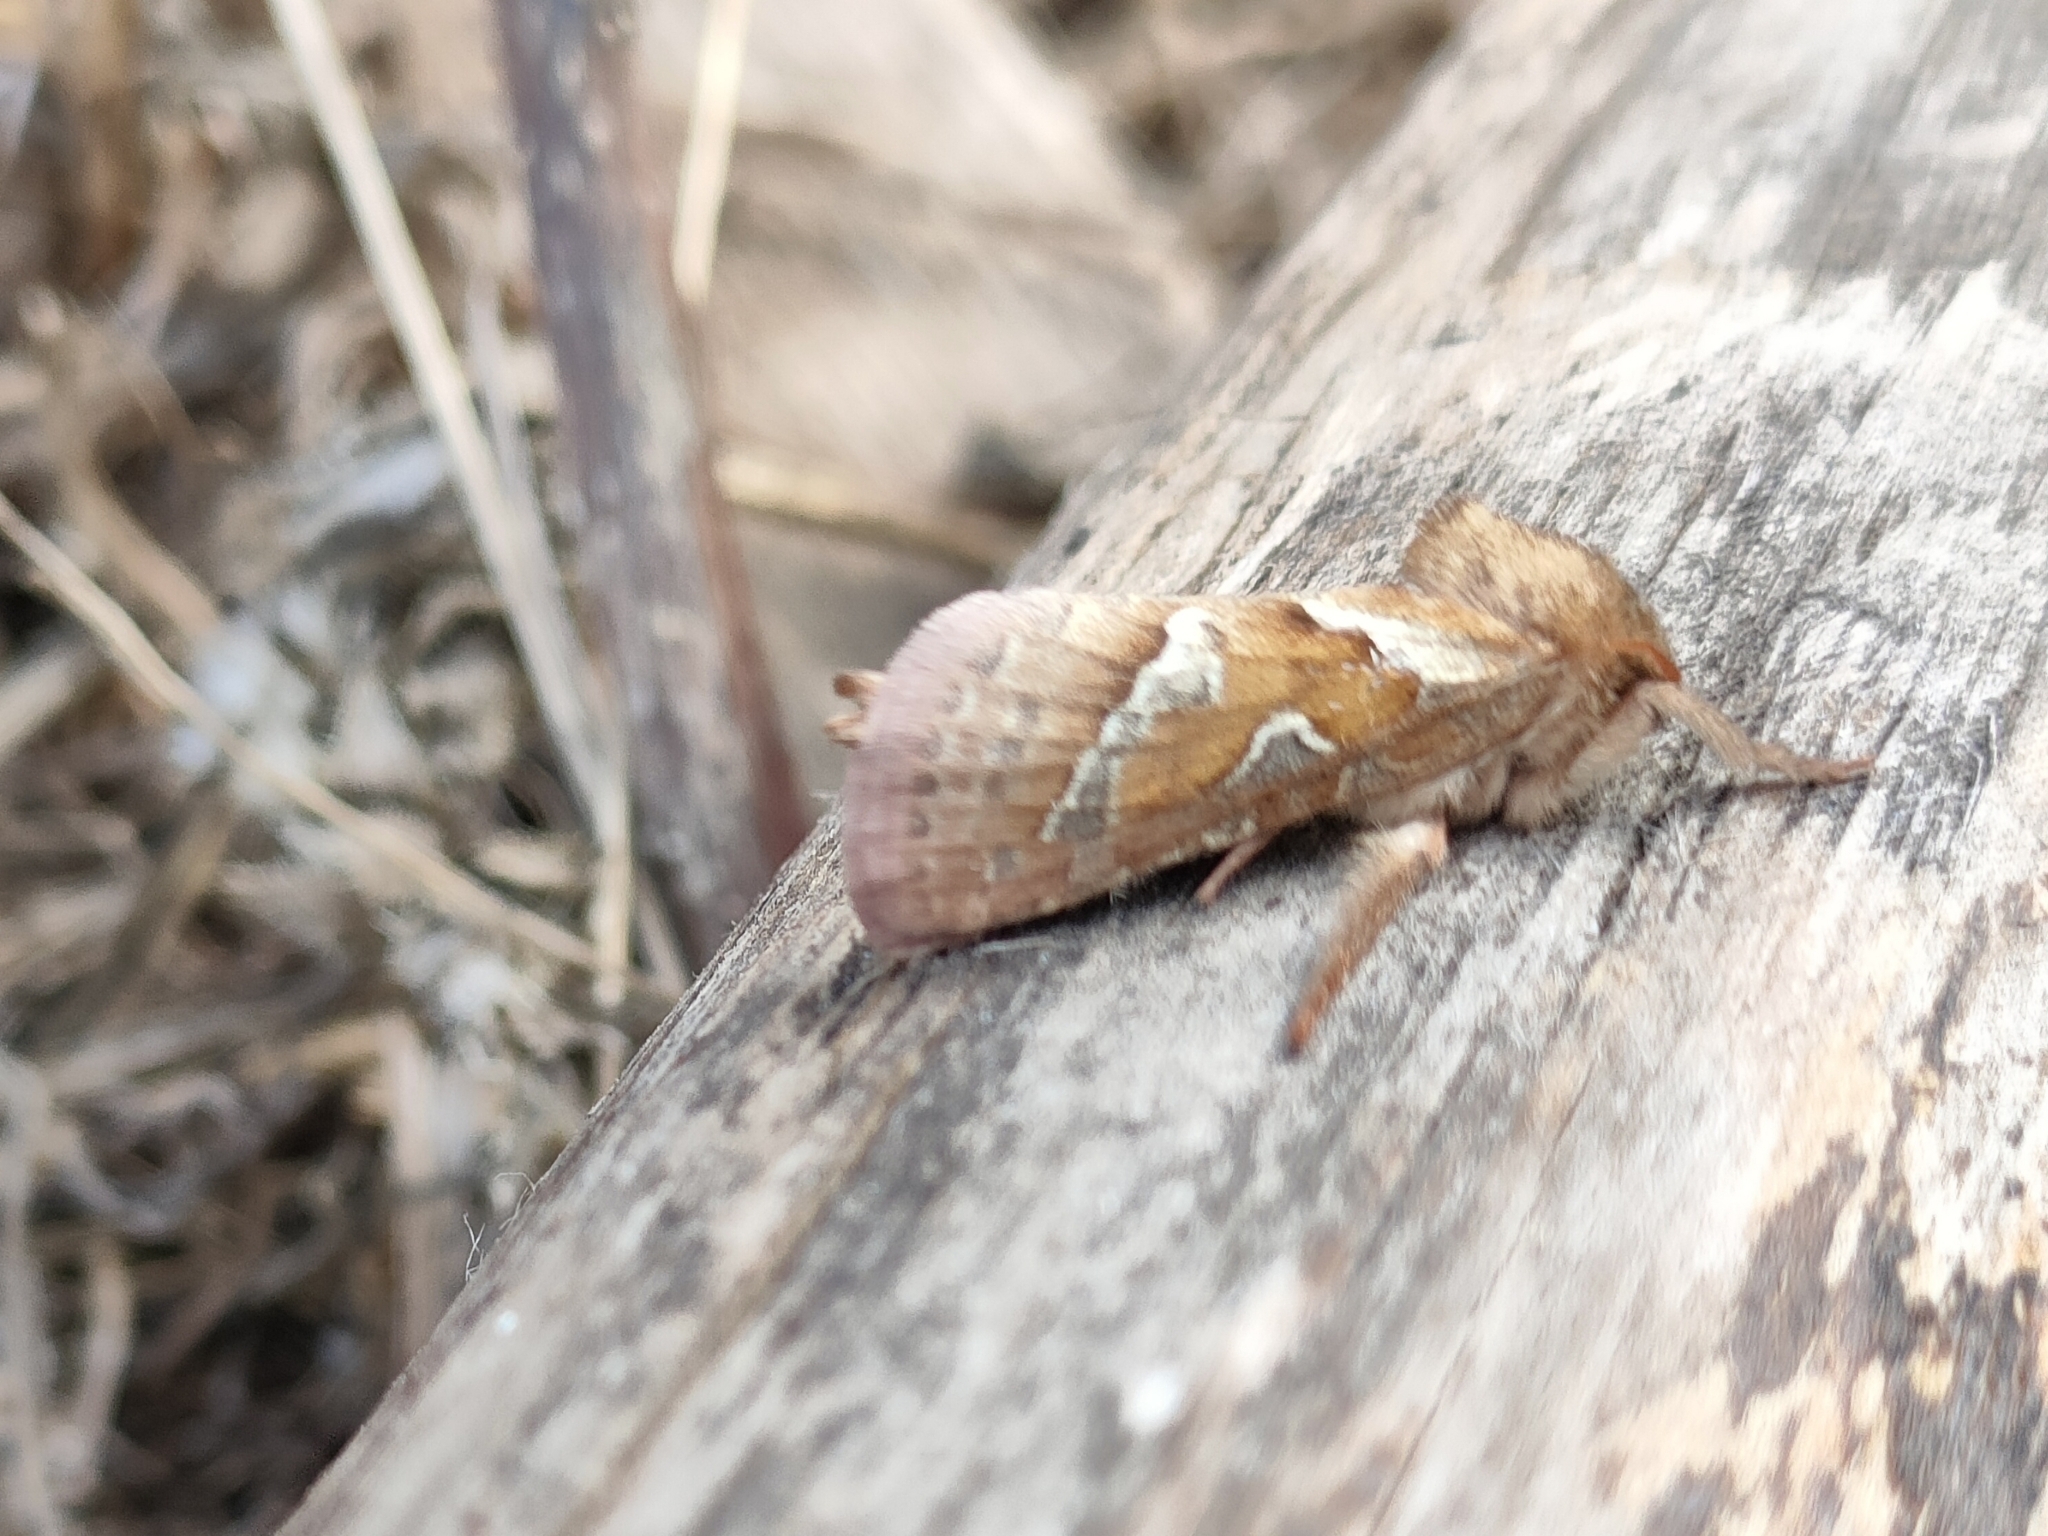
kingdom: Animalia
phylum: Arthropoda
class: Insecta
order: Lepidoptera
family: Hepialidae
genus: Triodia
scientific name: Triodia sylvina
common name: Orange swift
